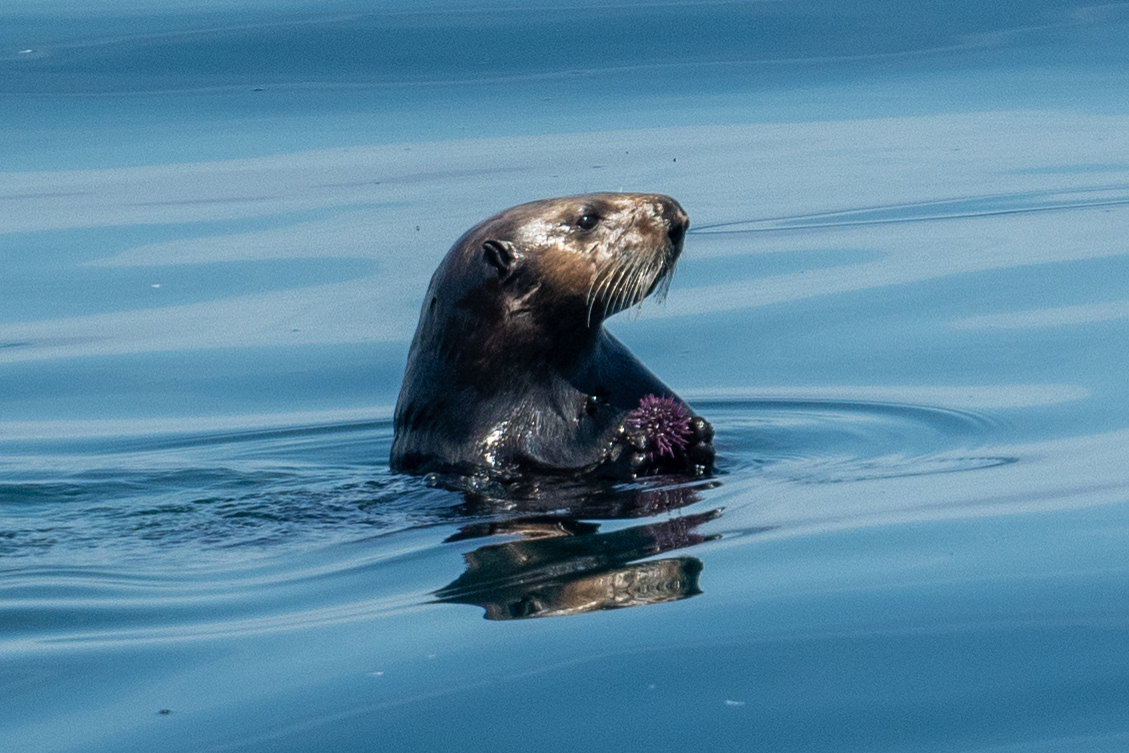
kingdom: Animalia
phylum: Chordata
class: Mammalia
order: Carnivora
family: Mustelidae
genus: Enhydra
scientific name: Enhydra lutris
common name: Sea otter
